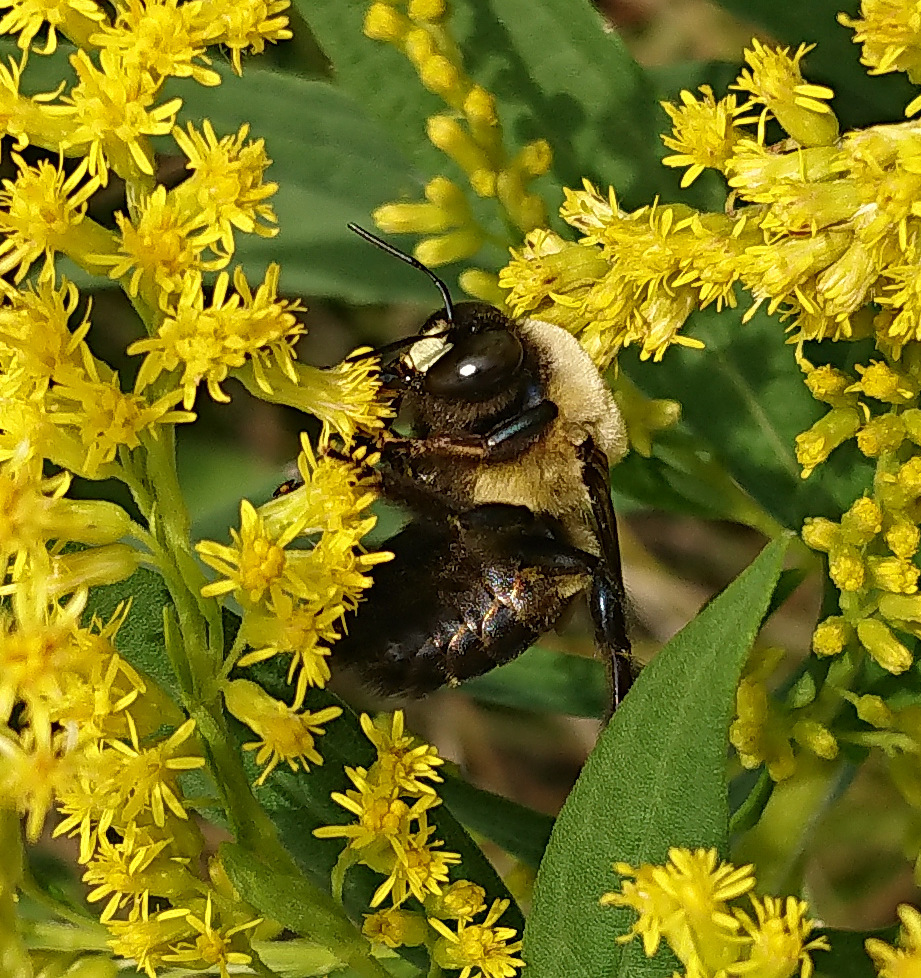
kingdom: Animalia
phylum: Arthropoda
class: Insecta
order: Hymenoptera
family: Apidae
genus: Xylocopa
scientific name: Xylocopa virginica
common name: Carpenter bee
